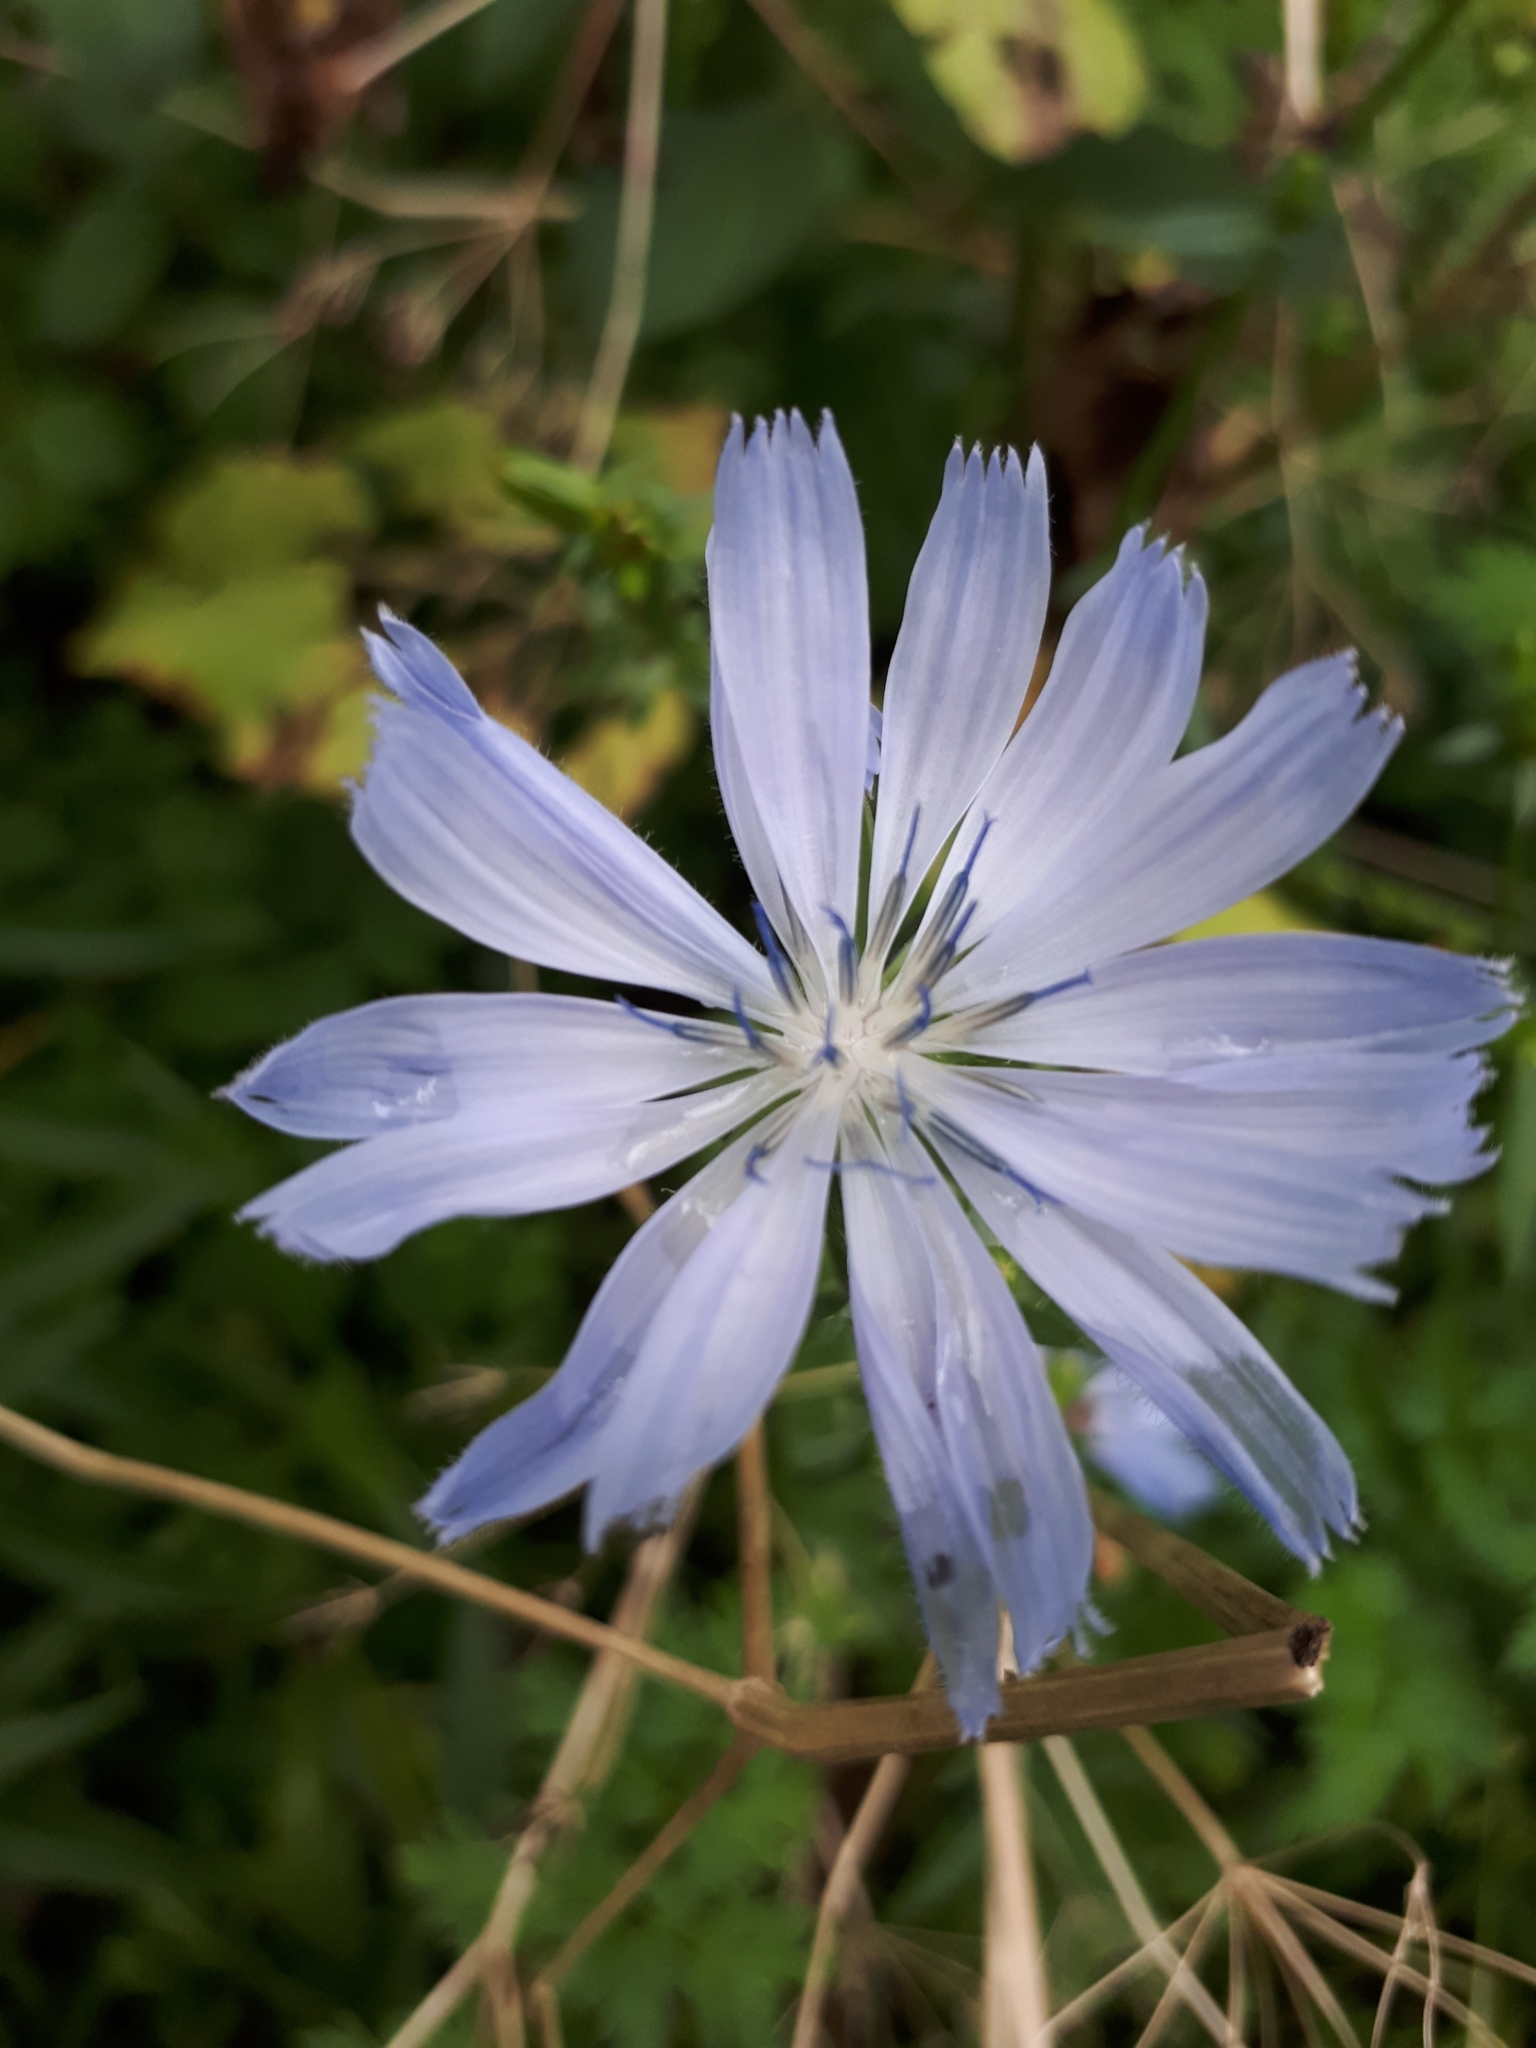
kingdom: Plantae
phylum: Tracheophyta
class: Magnoliopsida
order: Asterales
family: Asteraceae
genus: Cichorium
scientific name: Cichorium intybus
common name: Chicory
